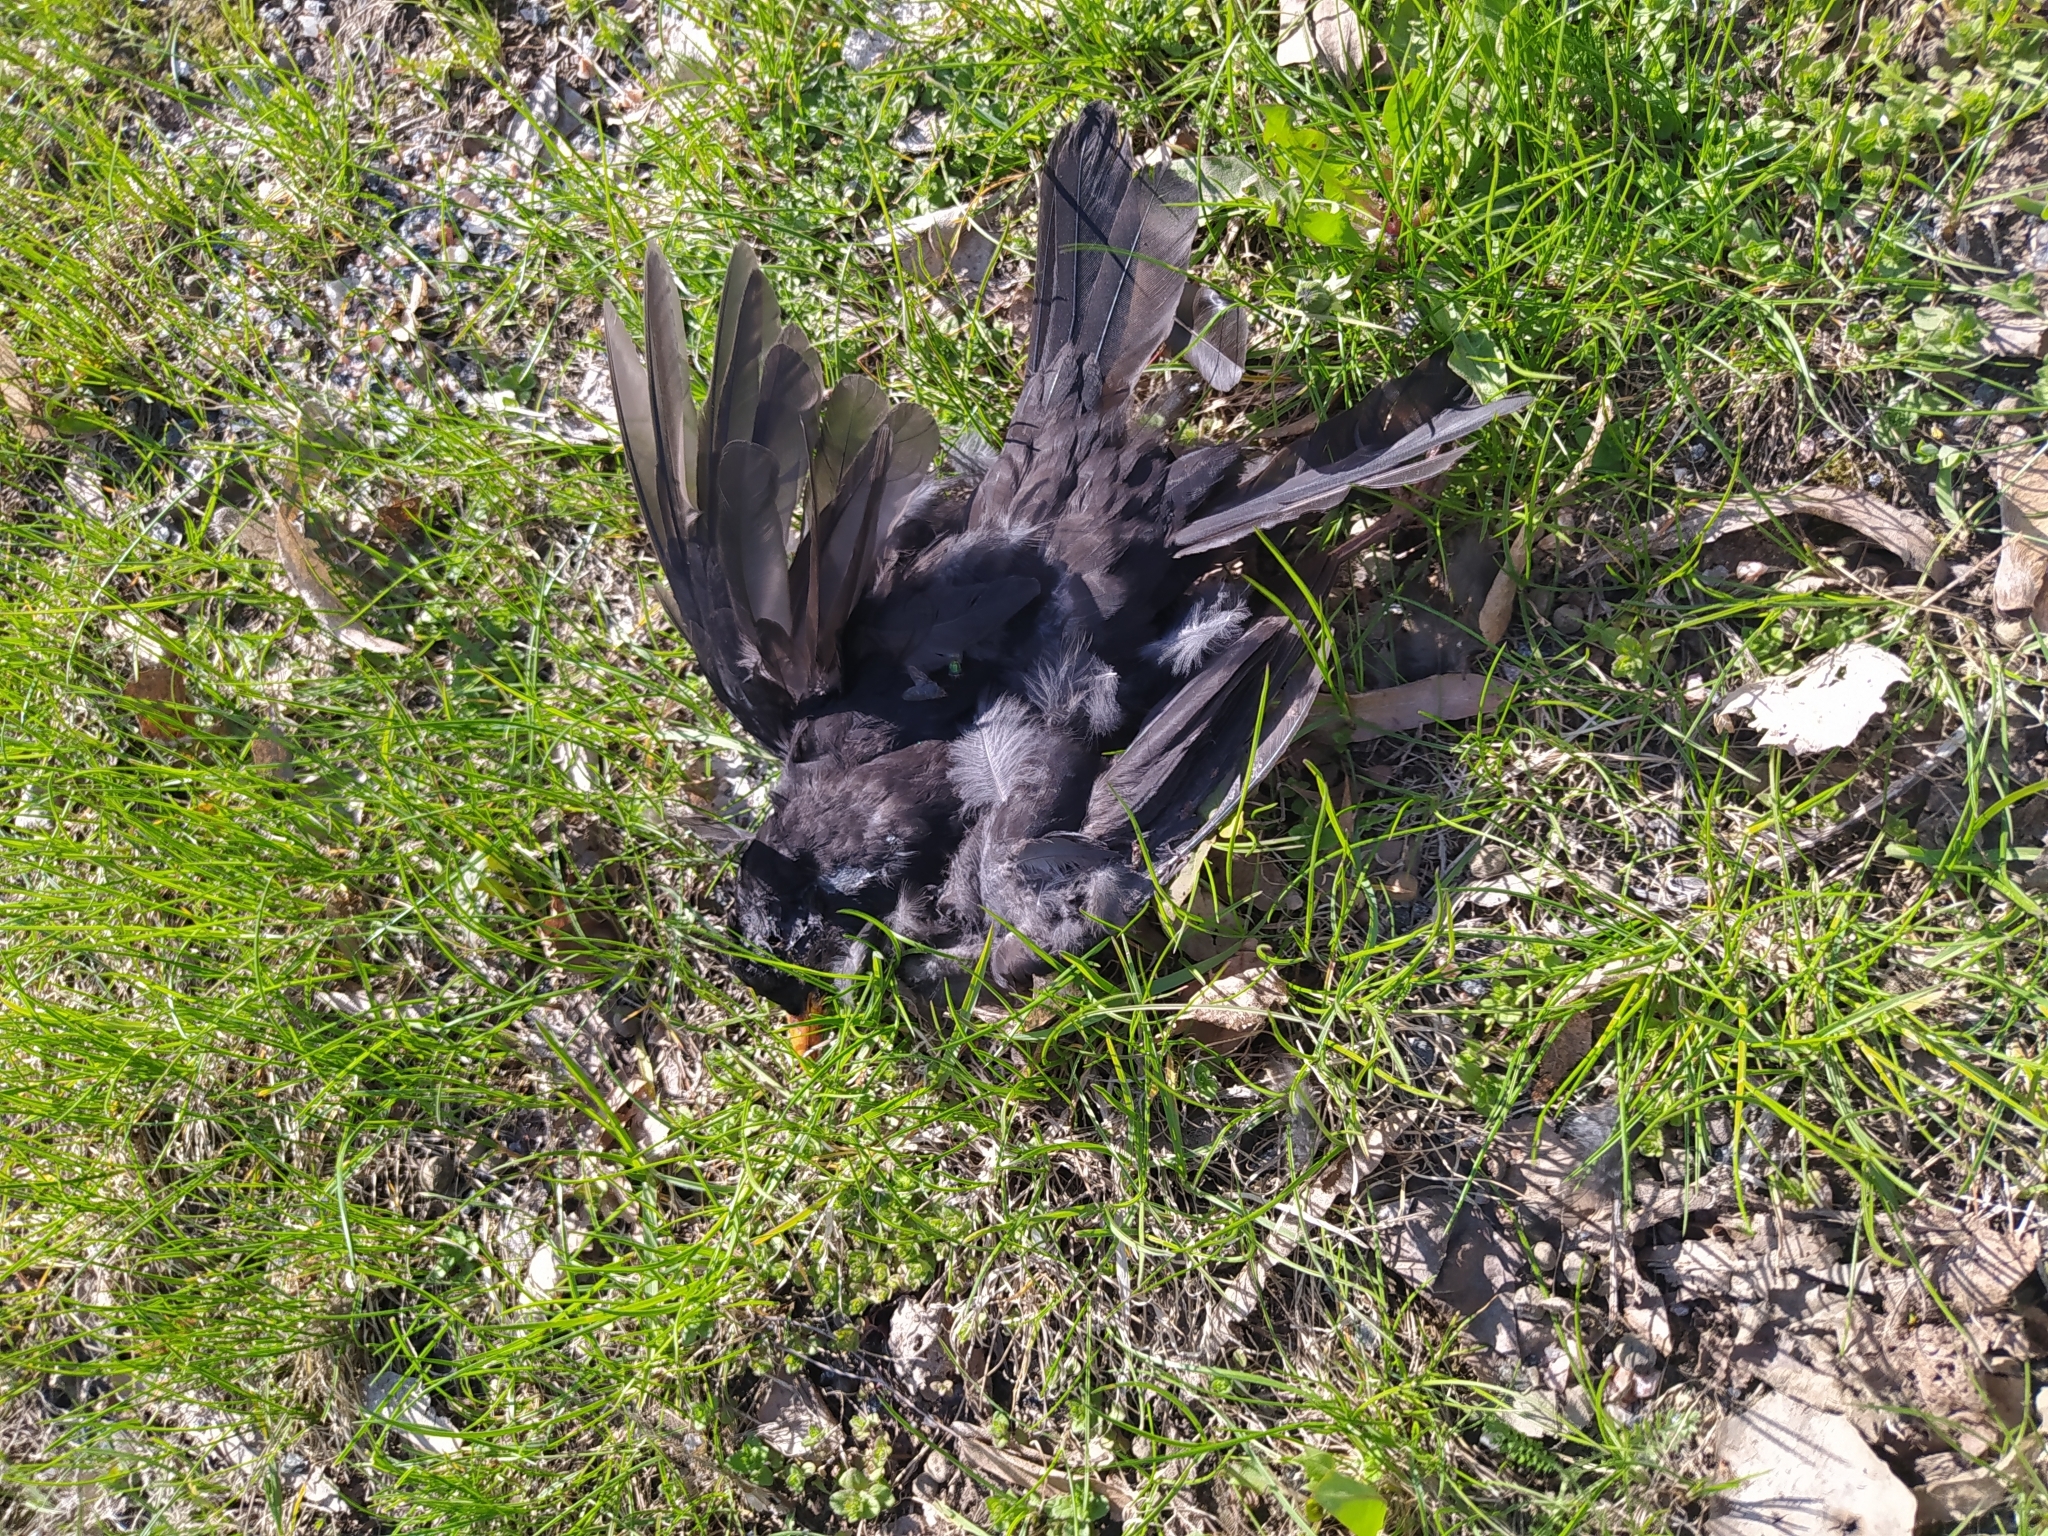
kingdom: Animalia
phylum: Chordata
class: Aves
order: Passeriformes
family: Turdidae
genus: Turdus
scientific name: Turdus merula
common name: Common blackbird
